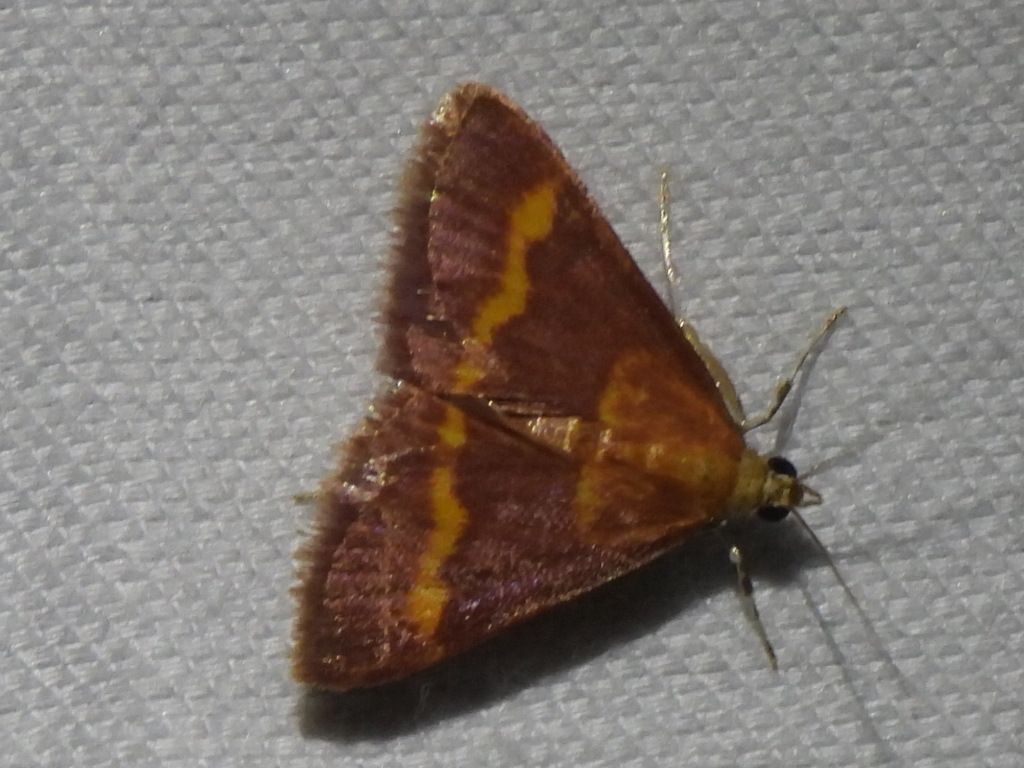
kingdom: Animalia
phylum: Arthropoda
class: Insecta
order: Lepidoptera
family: Crambidae
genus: Pyrausta
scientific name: Pyrausta pseuderosnealis
